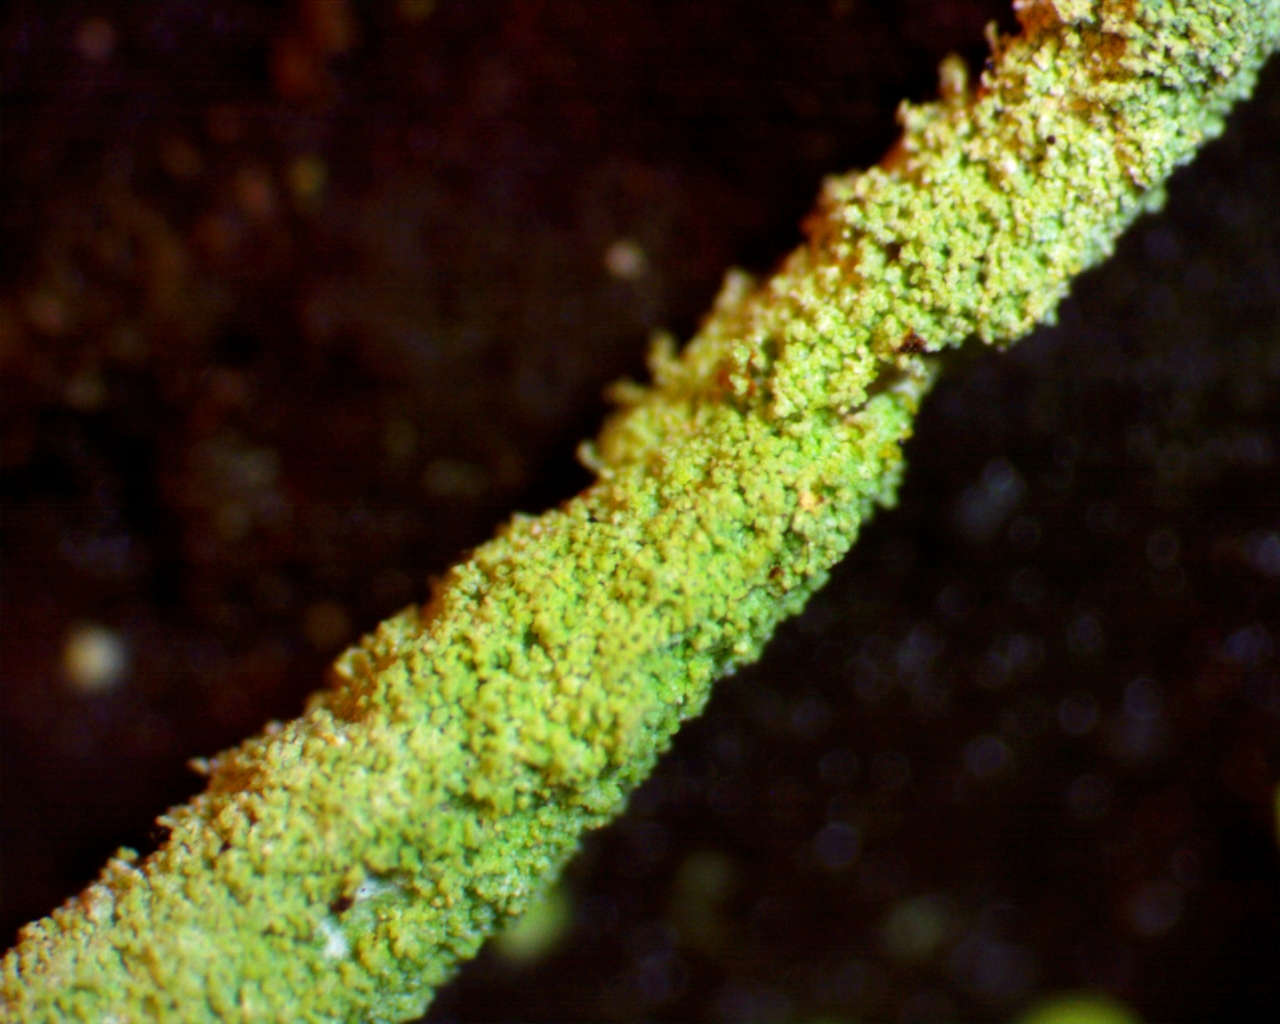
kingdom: Fungi
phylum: Ascomycota
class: Lecanoromycetes
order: Lecanorales
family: Cladoniaceae
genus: Cladonia
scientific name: Cladonia ochrochlora
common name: Smooth-footed powderhorn
